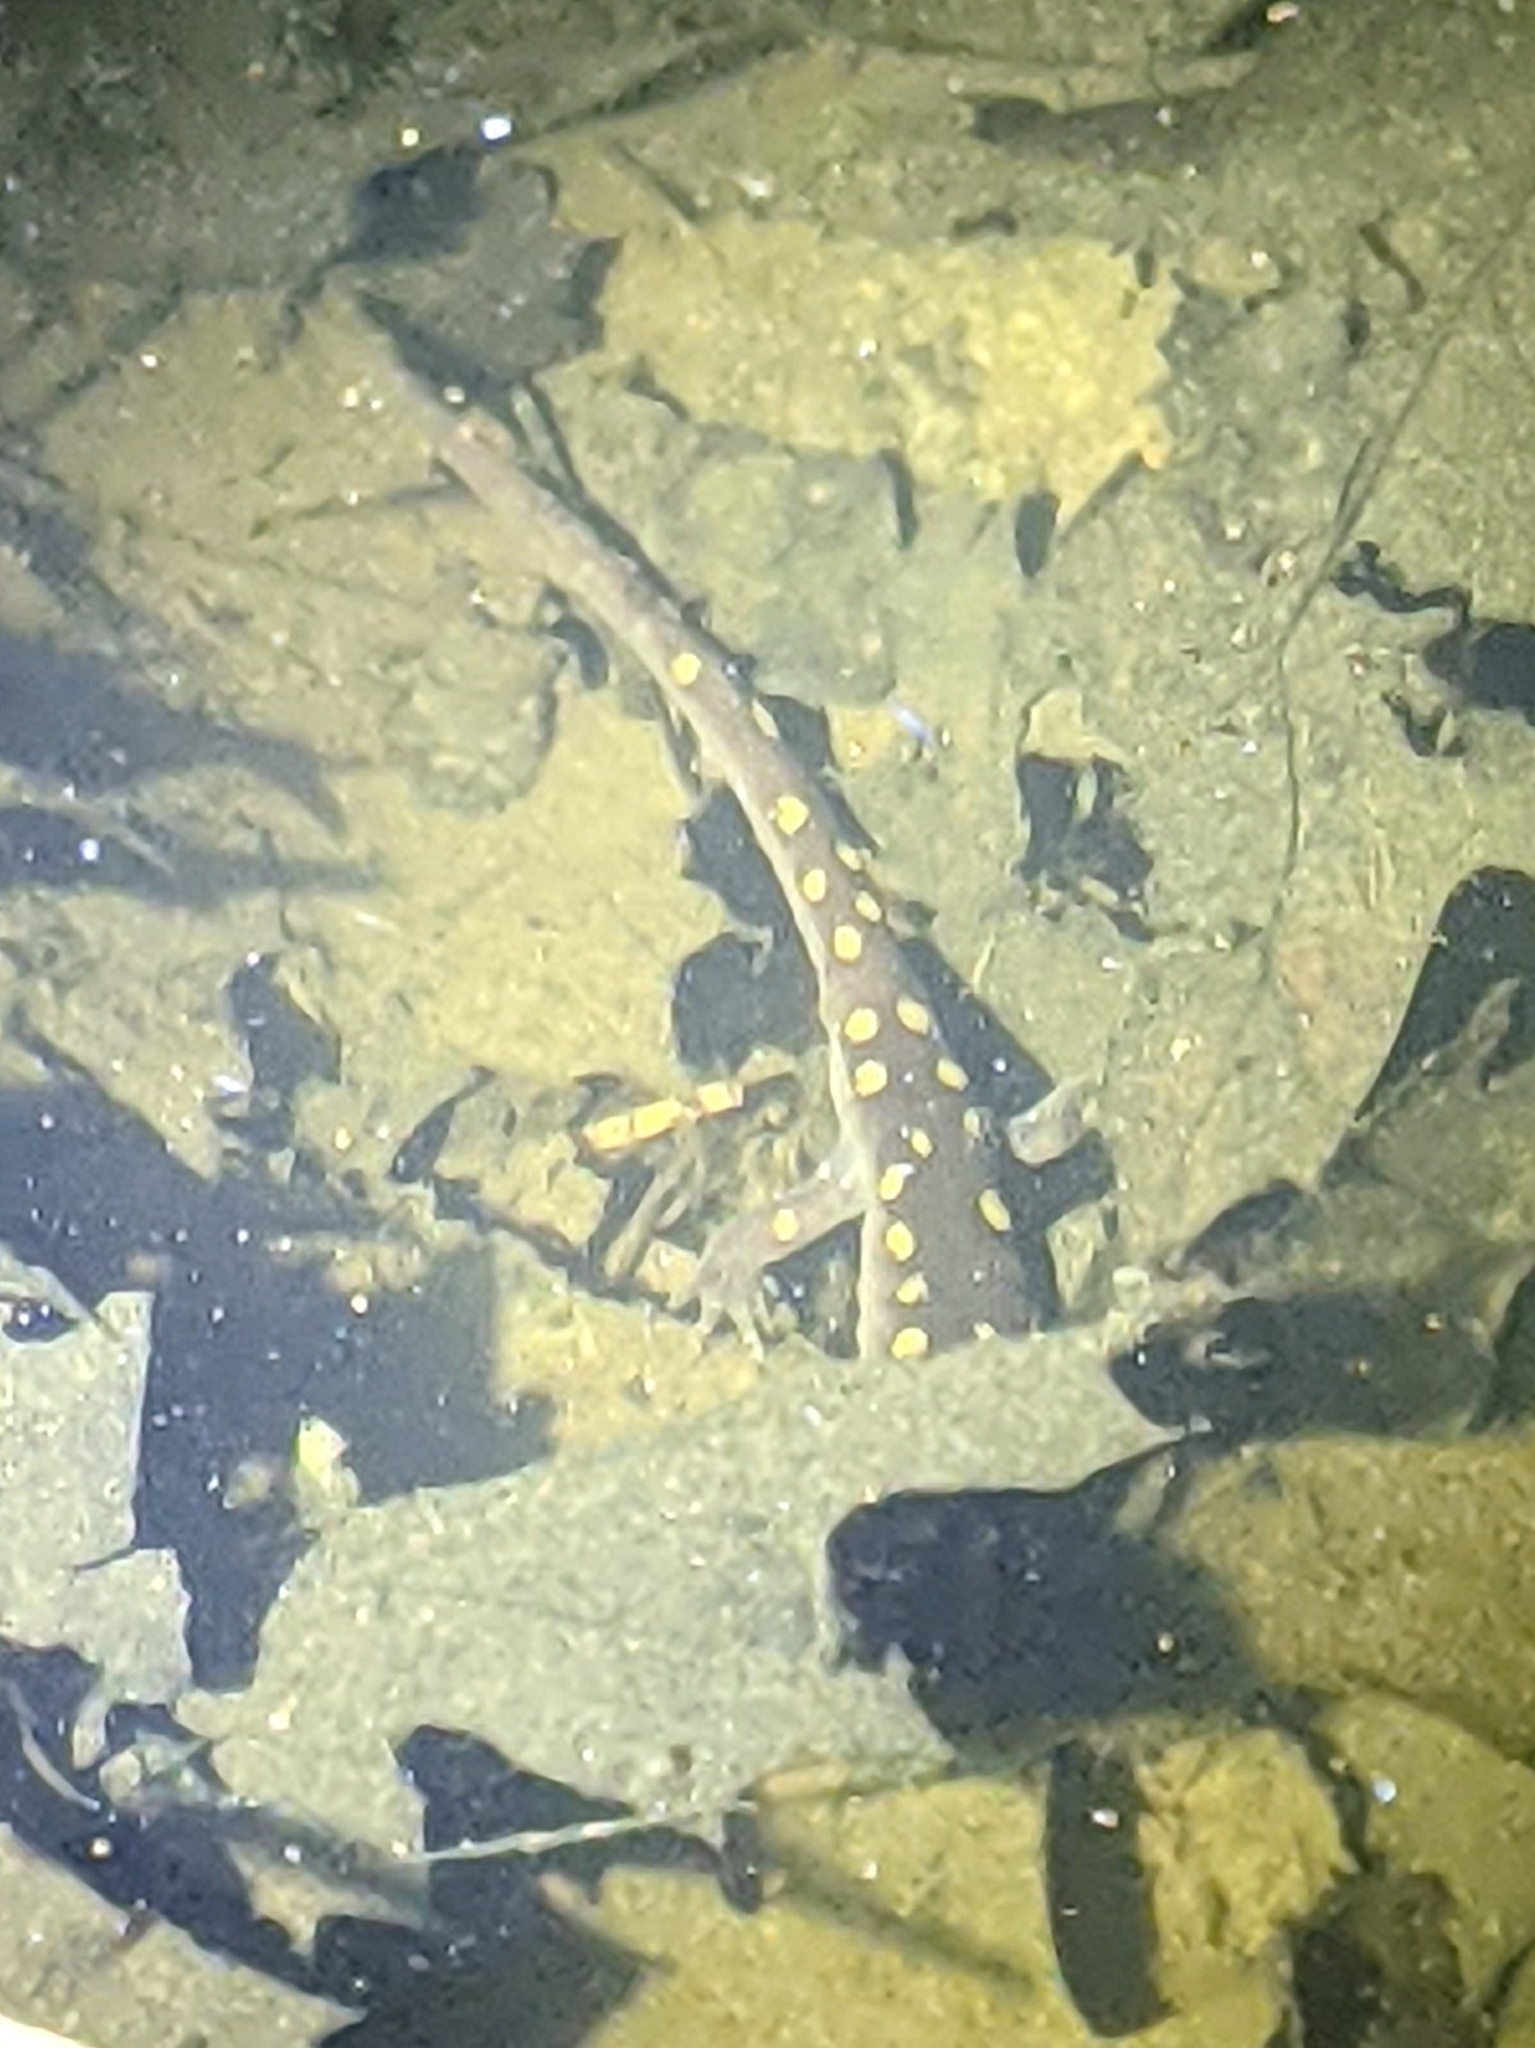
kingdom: Animalia
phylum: Chordata
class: Amphibia
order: Caudata
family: Ambystomatidae
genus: Ambystoma
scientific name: Ambystoma maculatum
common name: Spotted salamander
